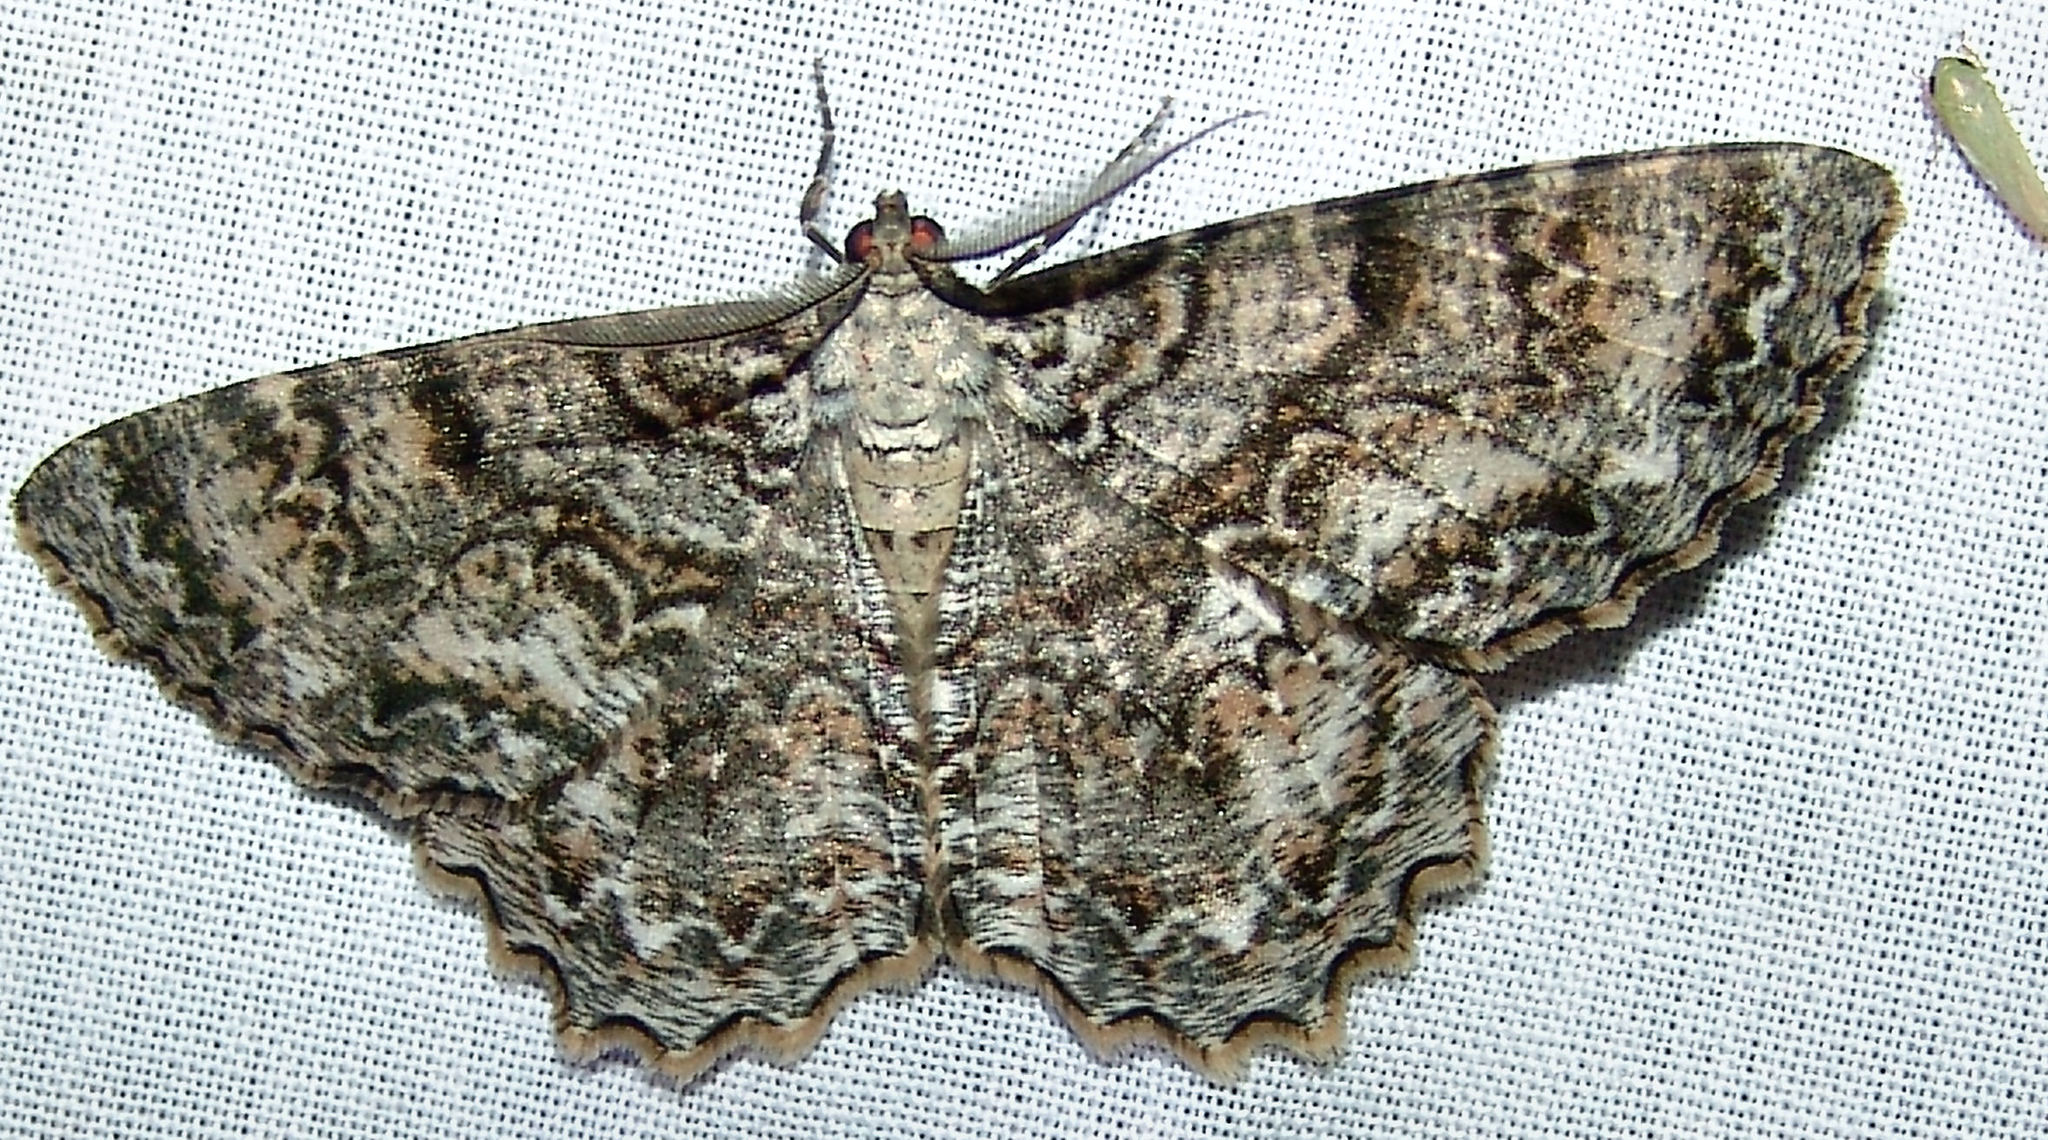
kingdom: Animalia
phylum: Arthropoda
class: Insecta
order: Lepidoptera
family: Geometridae
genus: Epimecis
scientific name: Epimecis hortaria
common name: Tulip-tree beauty
